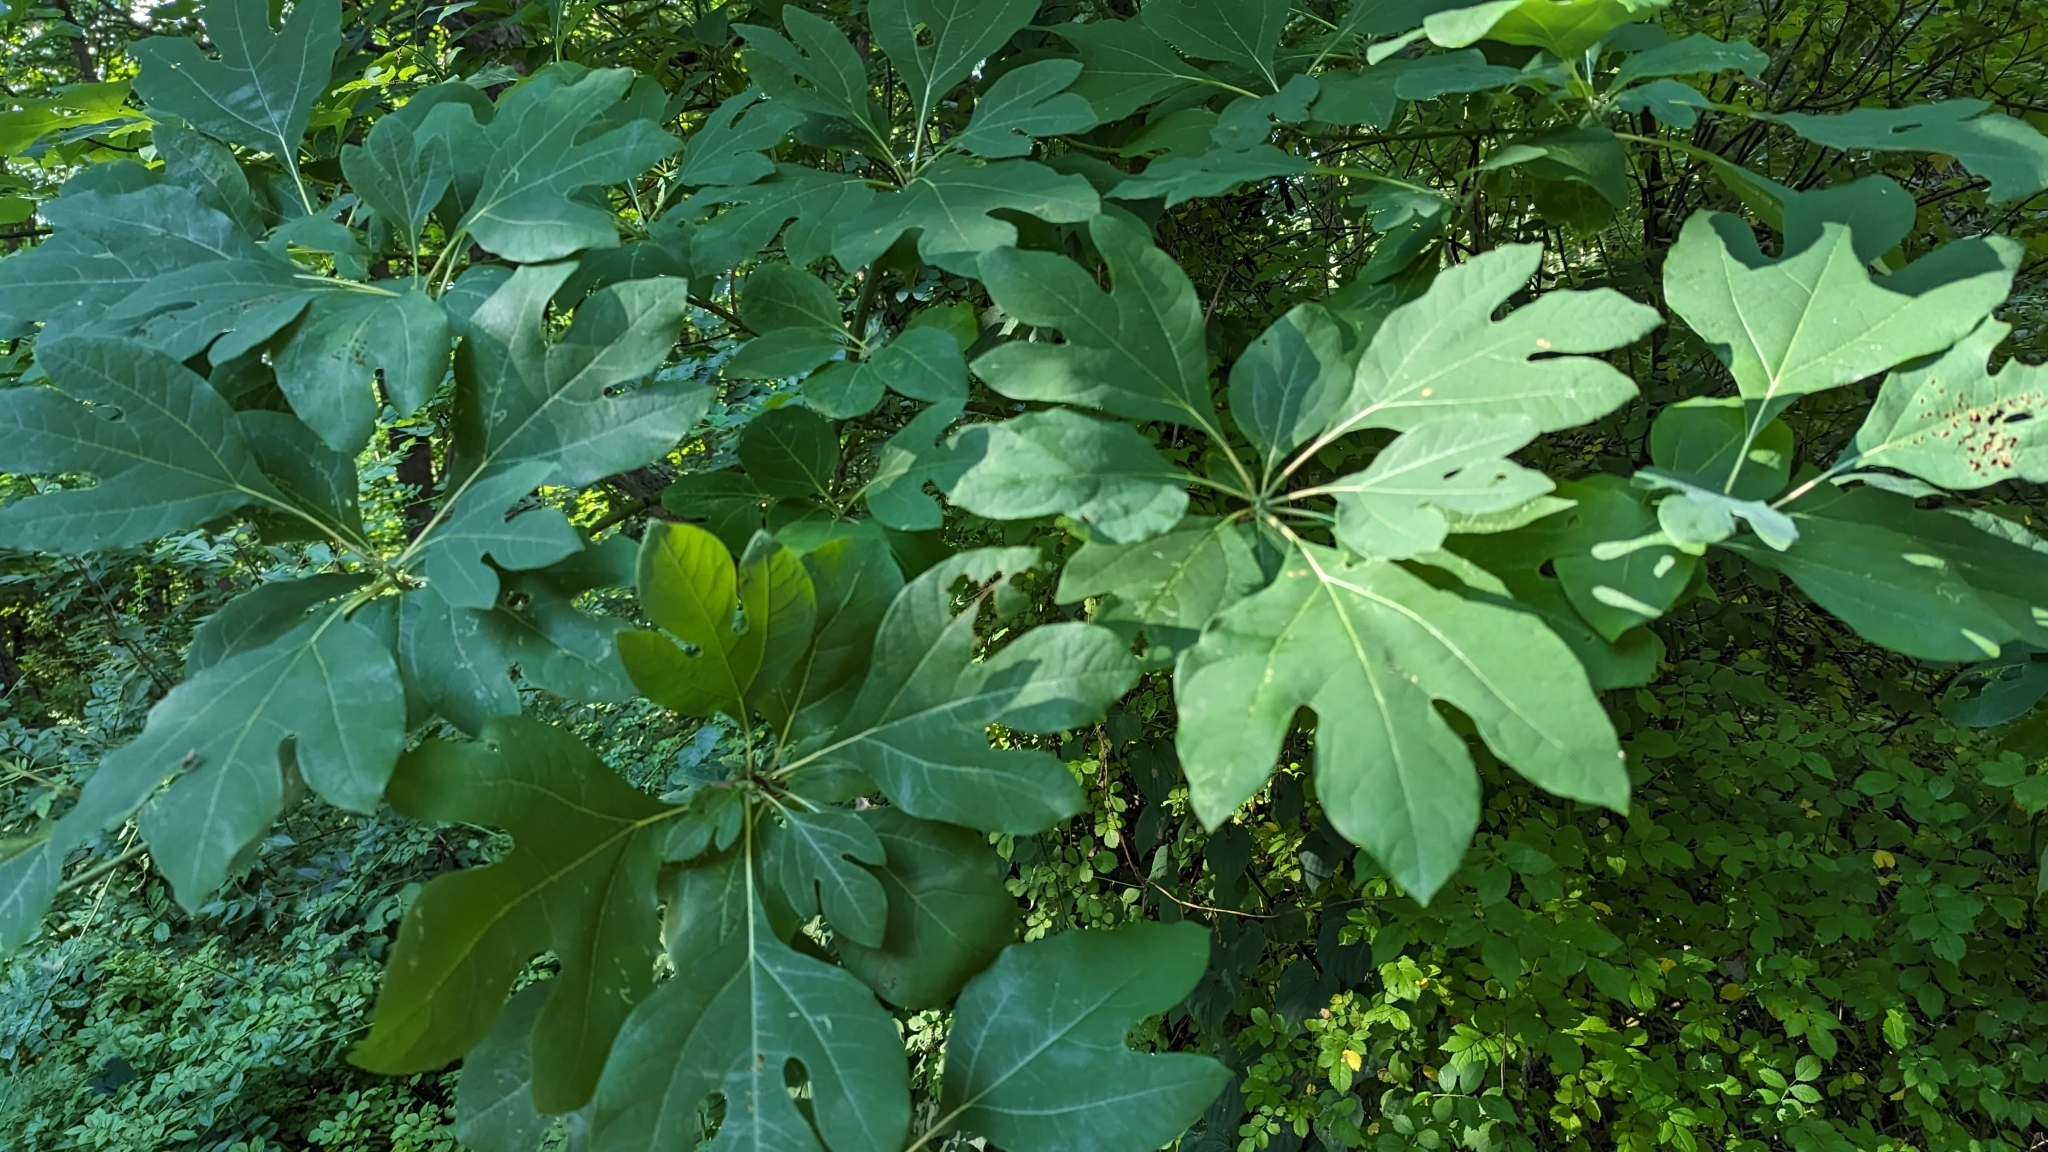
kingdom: Plantae
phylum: Tracheophyta
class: Magnoliopsida
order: Laurales
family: Lauraceae
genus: Sassafras
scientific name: Sassafras albidum
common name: Sassafras
